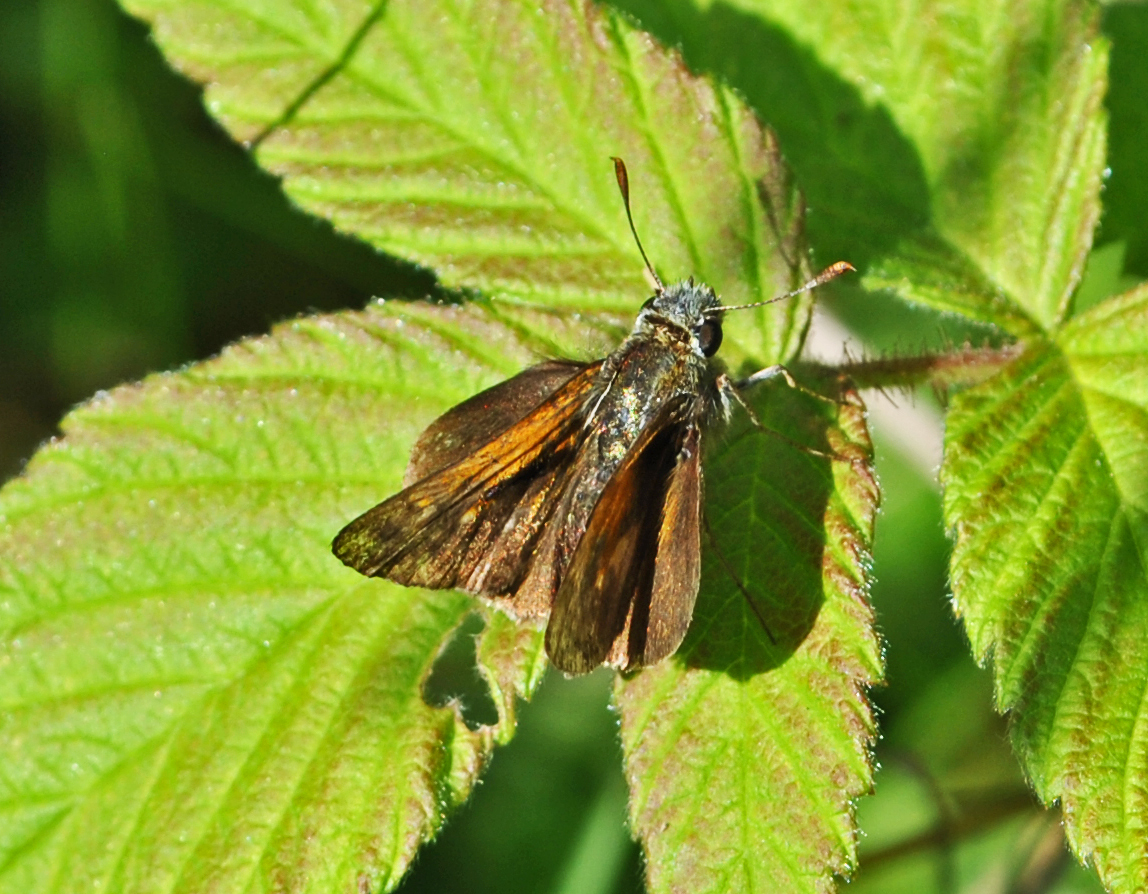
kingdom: Animalia
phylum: Arthropoda
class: Insecta
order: Lepidoptera
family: Hesperiidae
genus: Polites
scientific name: Polites themistocles
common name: Tawny-edged skipper
